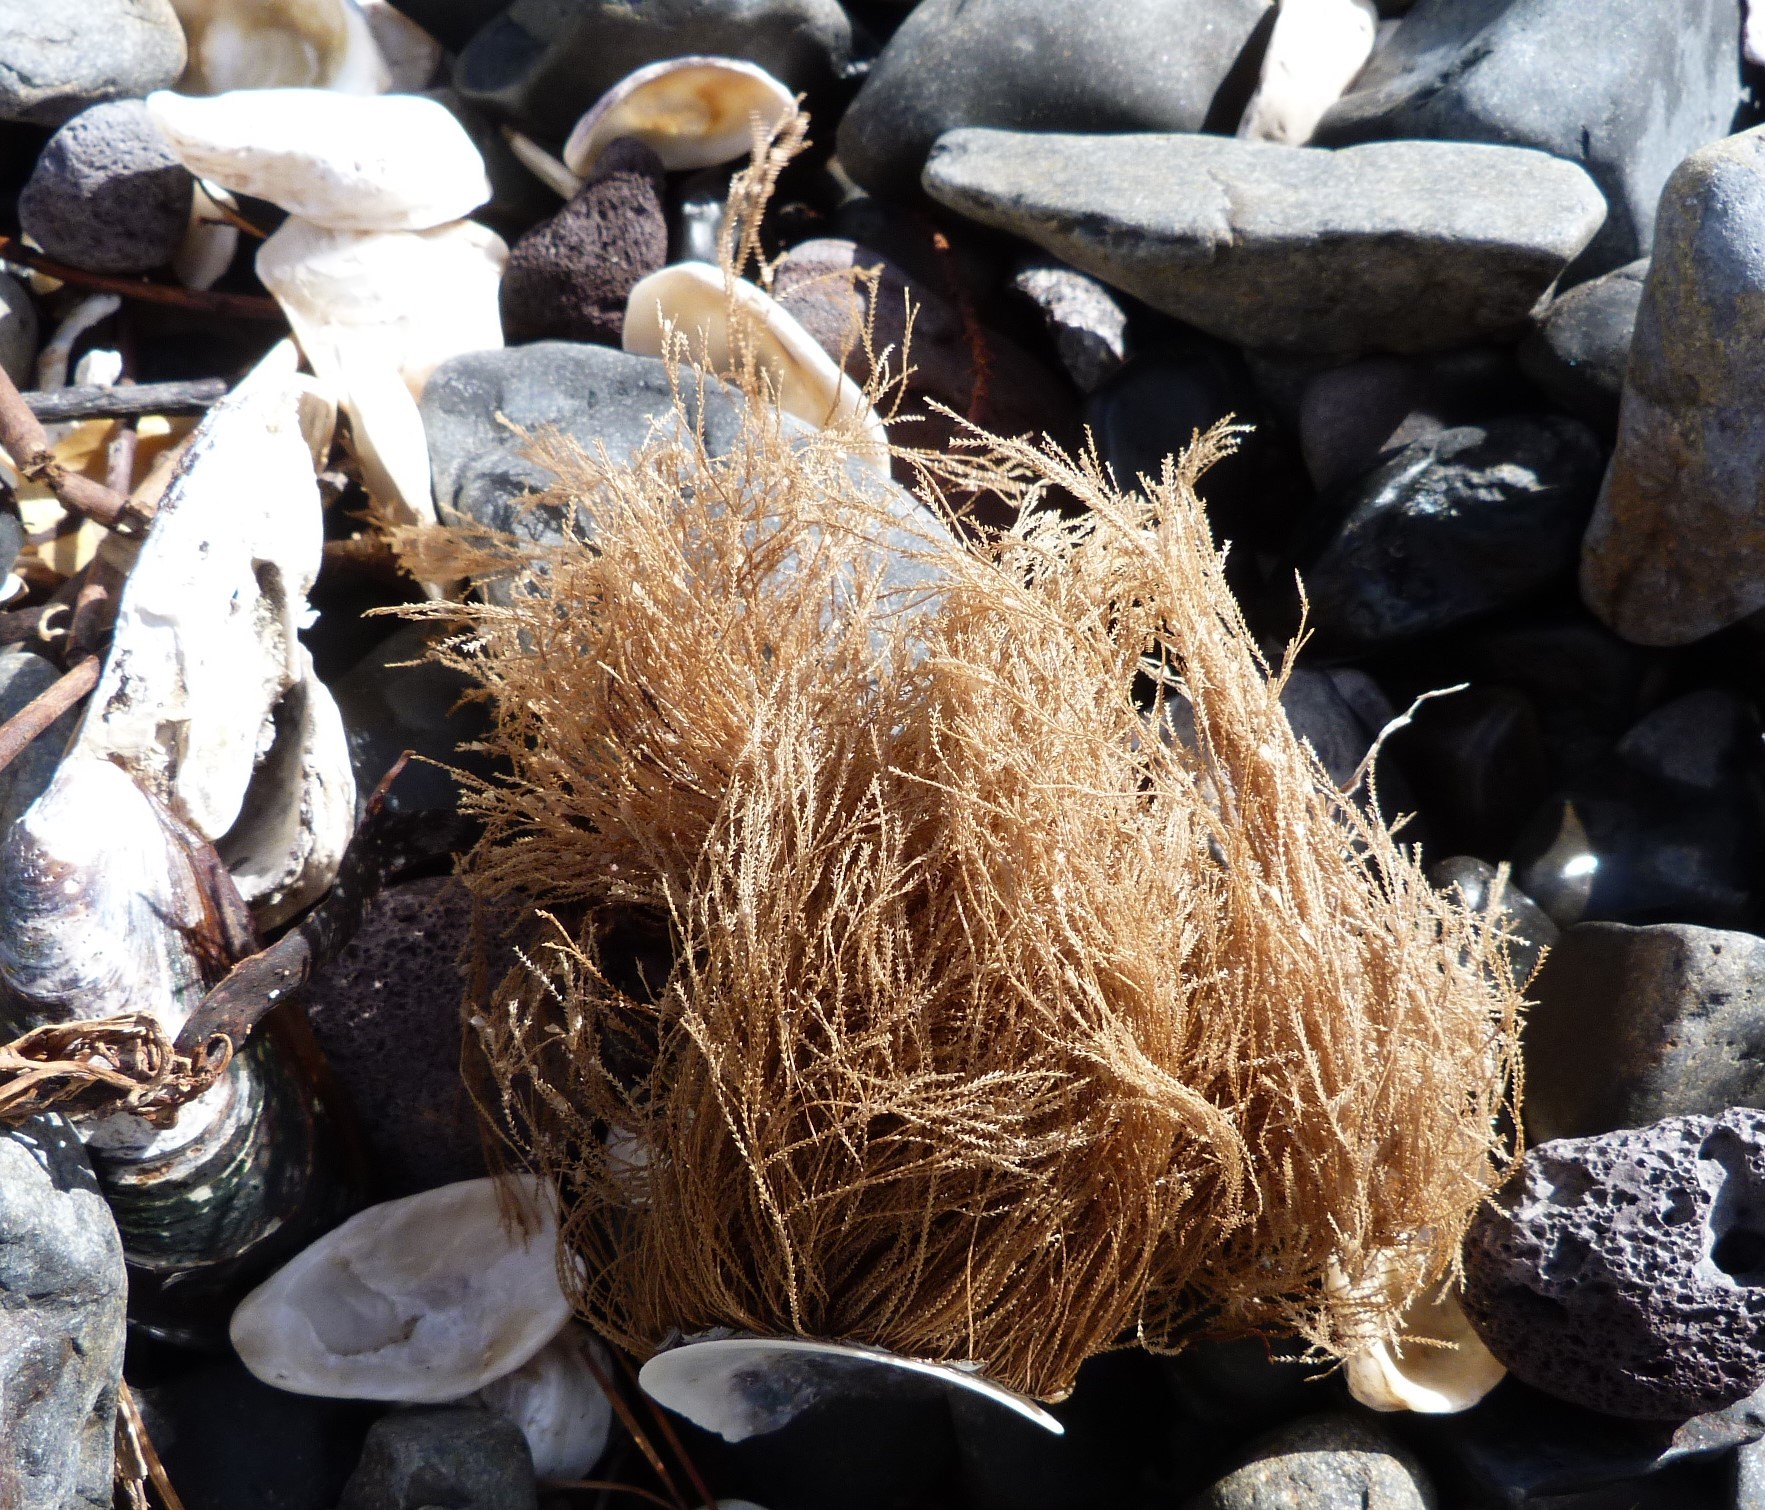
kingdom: Animalia
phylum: Cnidaria
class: Hydrozoa
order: Leptothecata
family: Sertulariidae
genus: Amphisbetia
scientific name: Amphisbetia bispinosa
